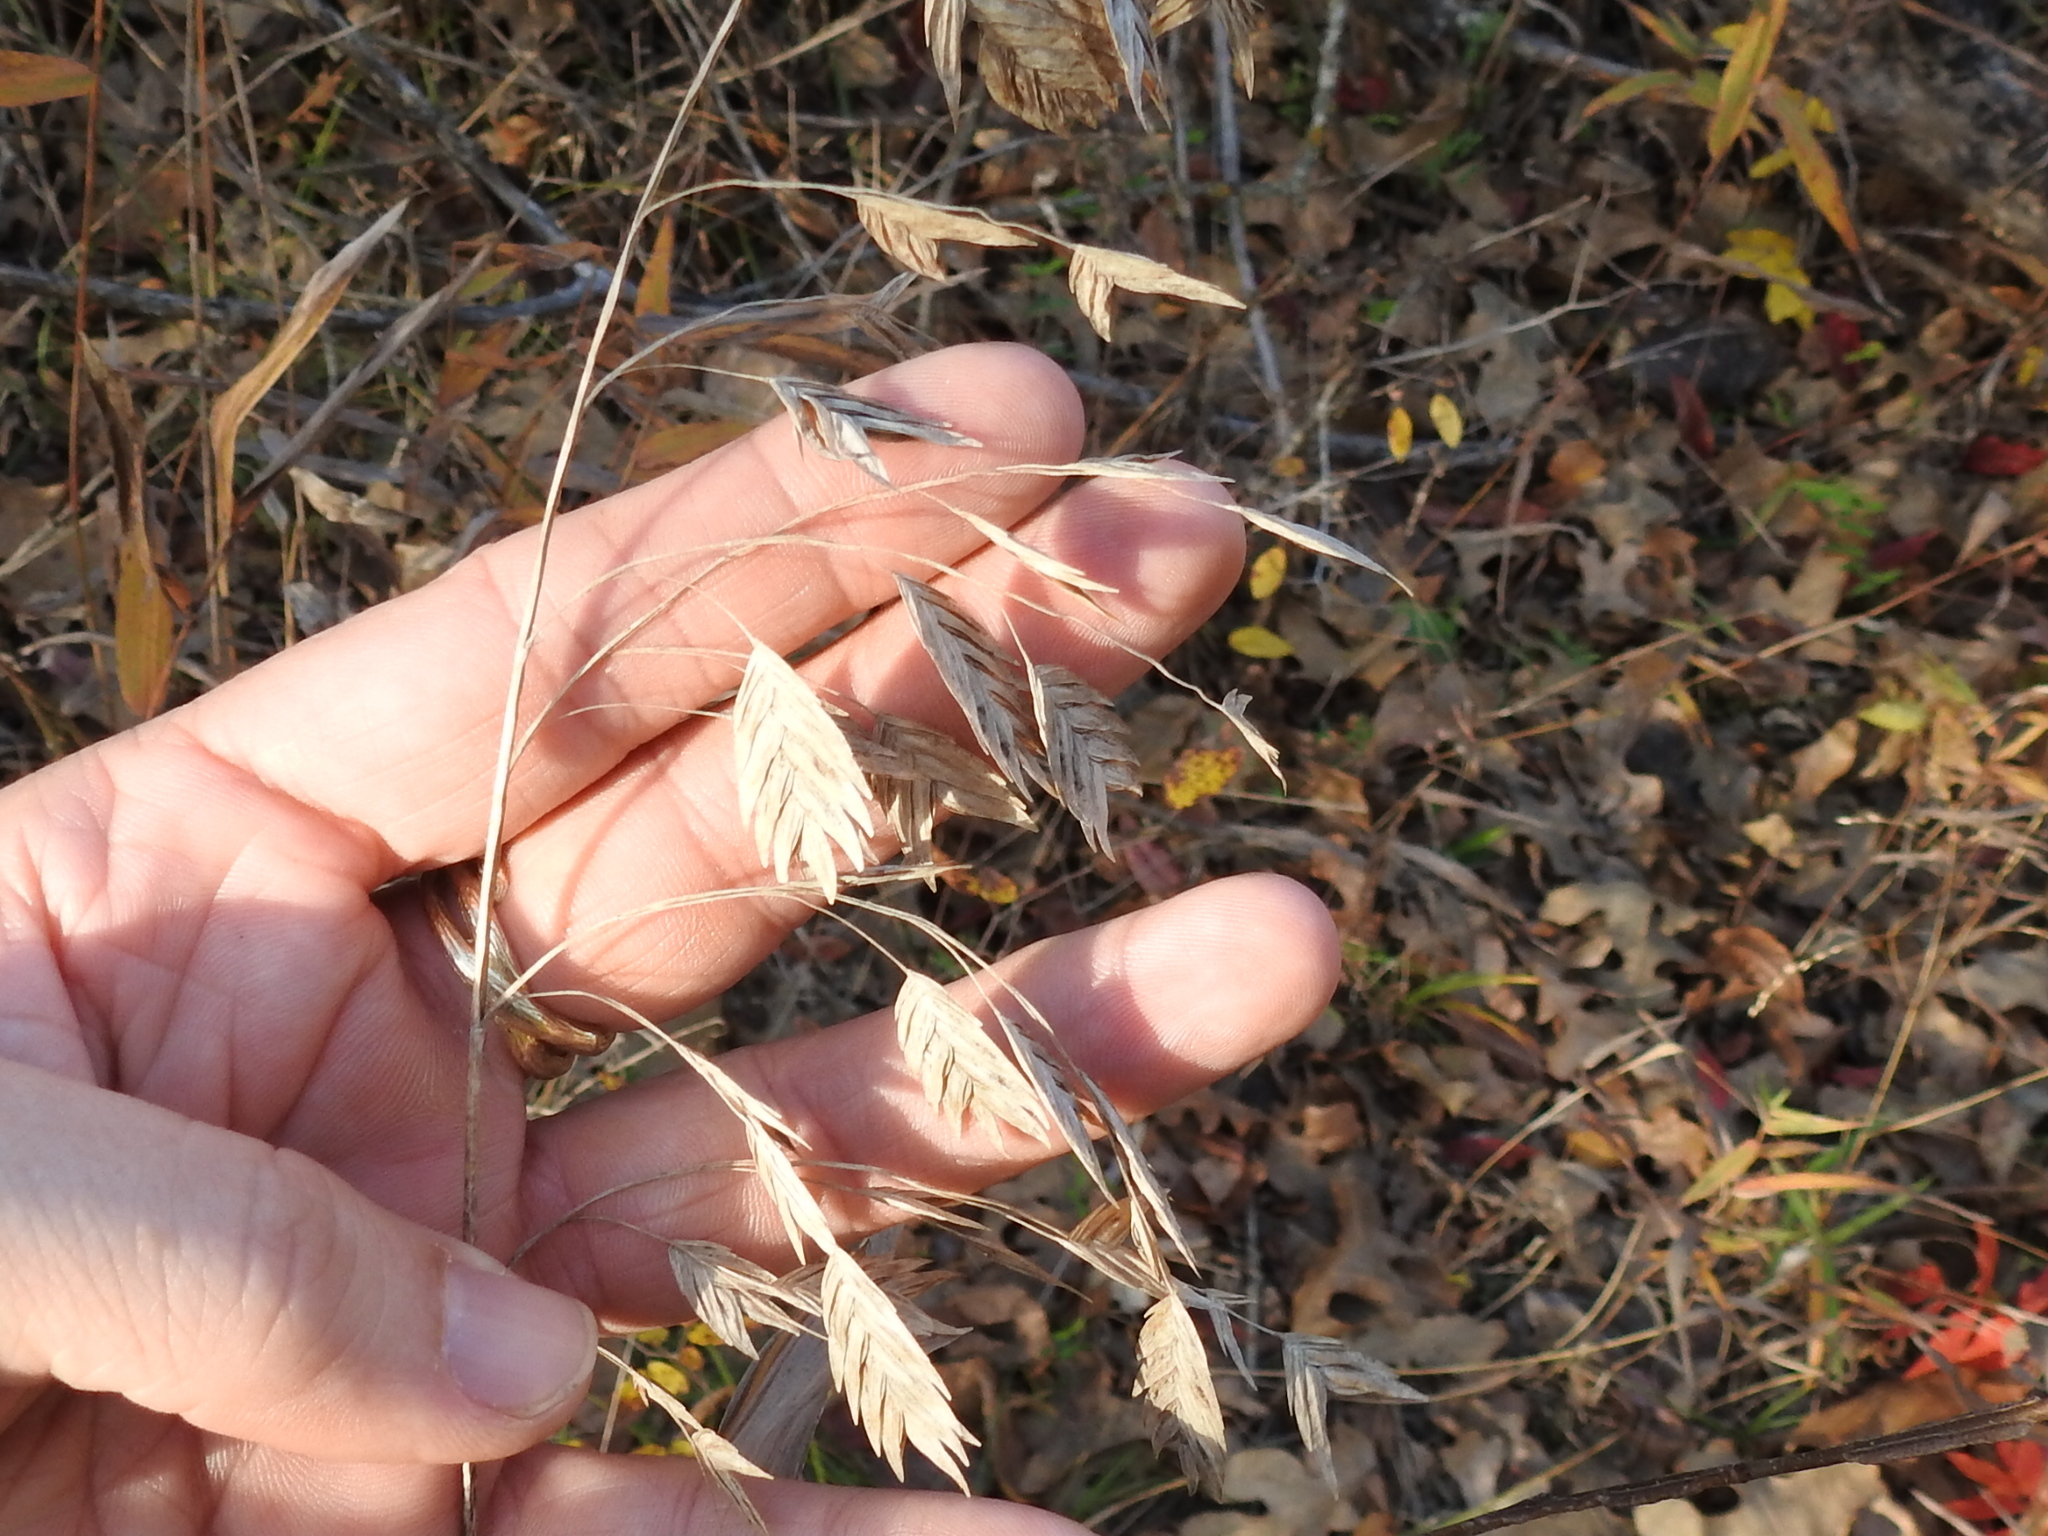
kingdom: Plantae
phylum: Tracheophyta
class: Liliopsida
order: Poales
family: Poaceae
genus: Chasmanthium
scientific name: Chasmanthium latifolium
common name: Broad-leaved chasmanthium
